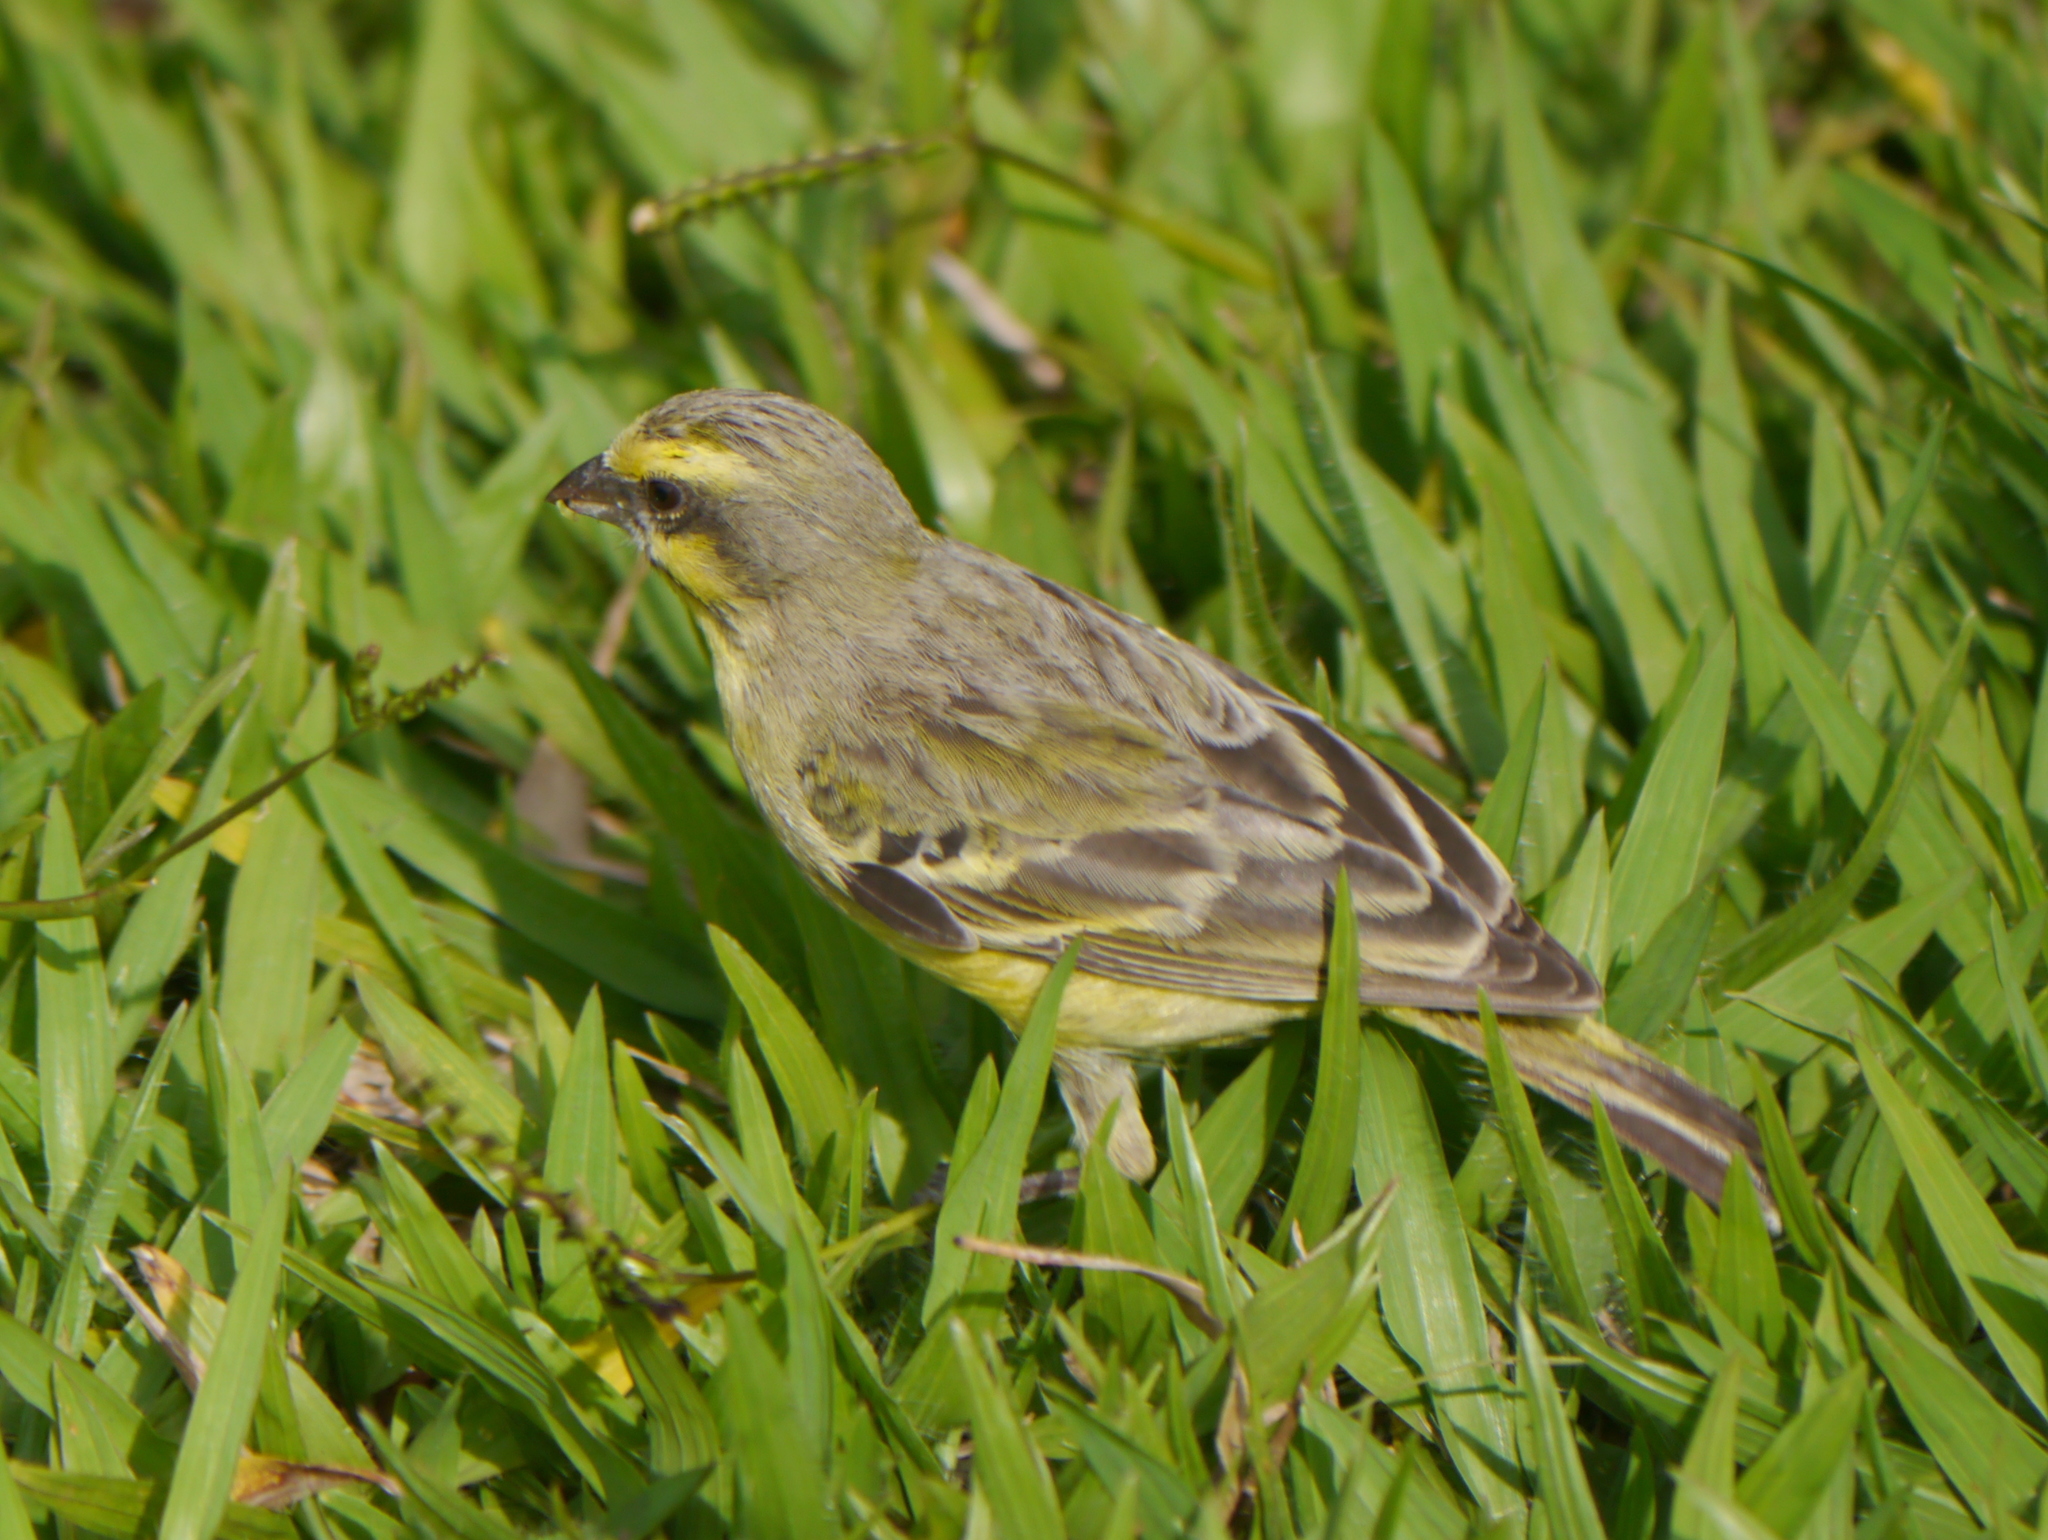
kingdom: Animalia
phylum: Chordata
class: Aves
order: Passeriformes
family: Fringillidae
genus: Crithagra
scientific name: Crithagra mozambica
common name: Yellow-fronted canary
